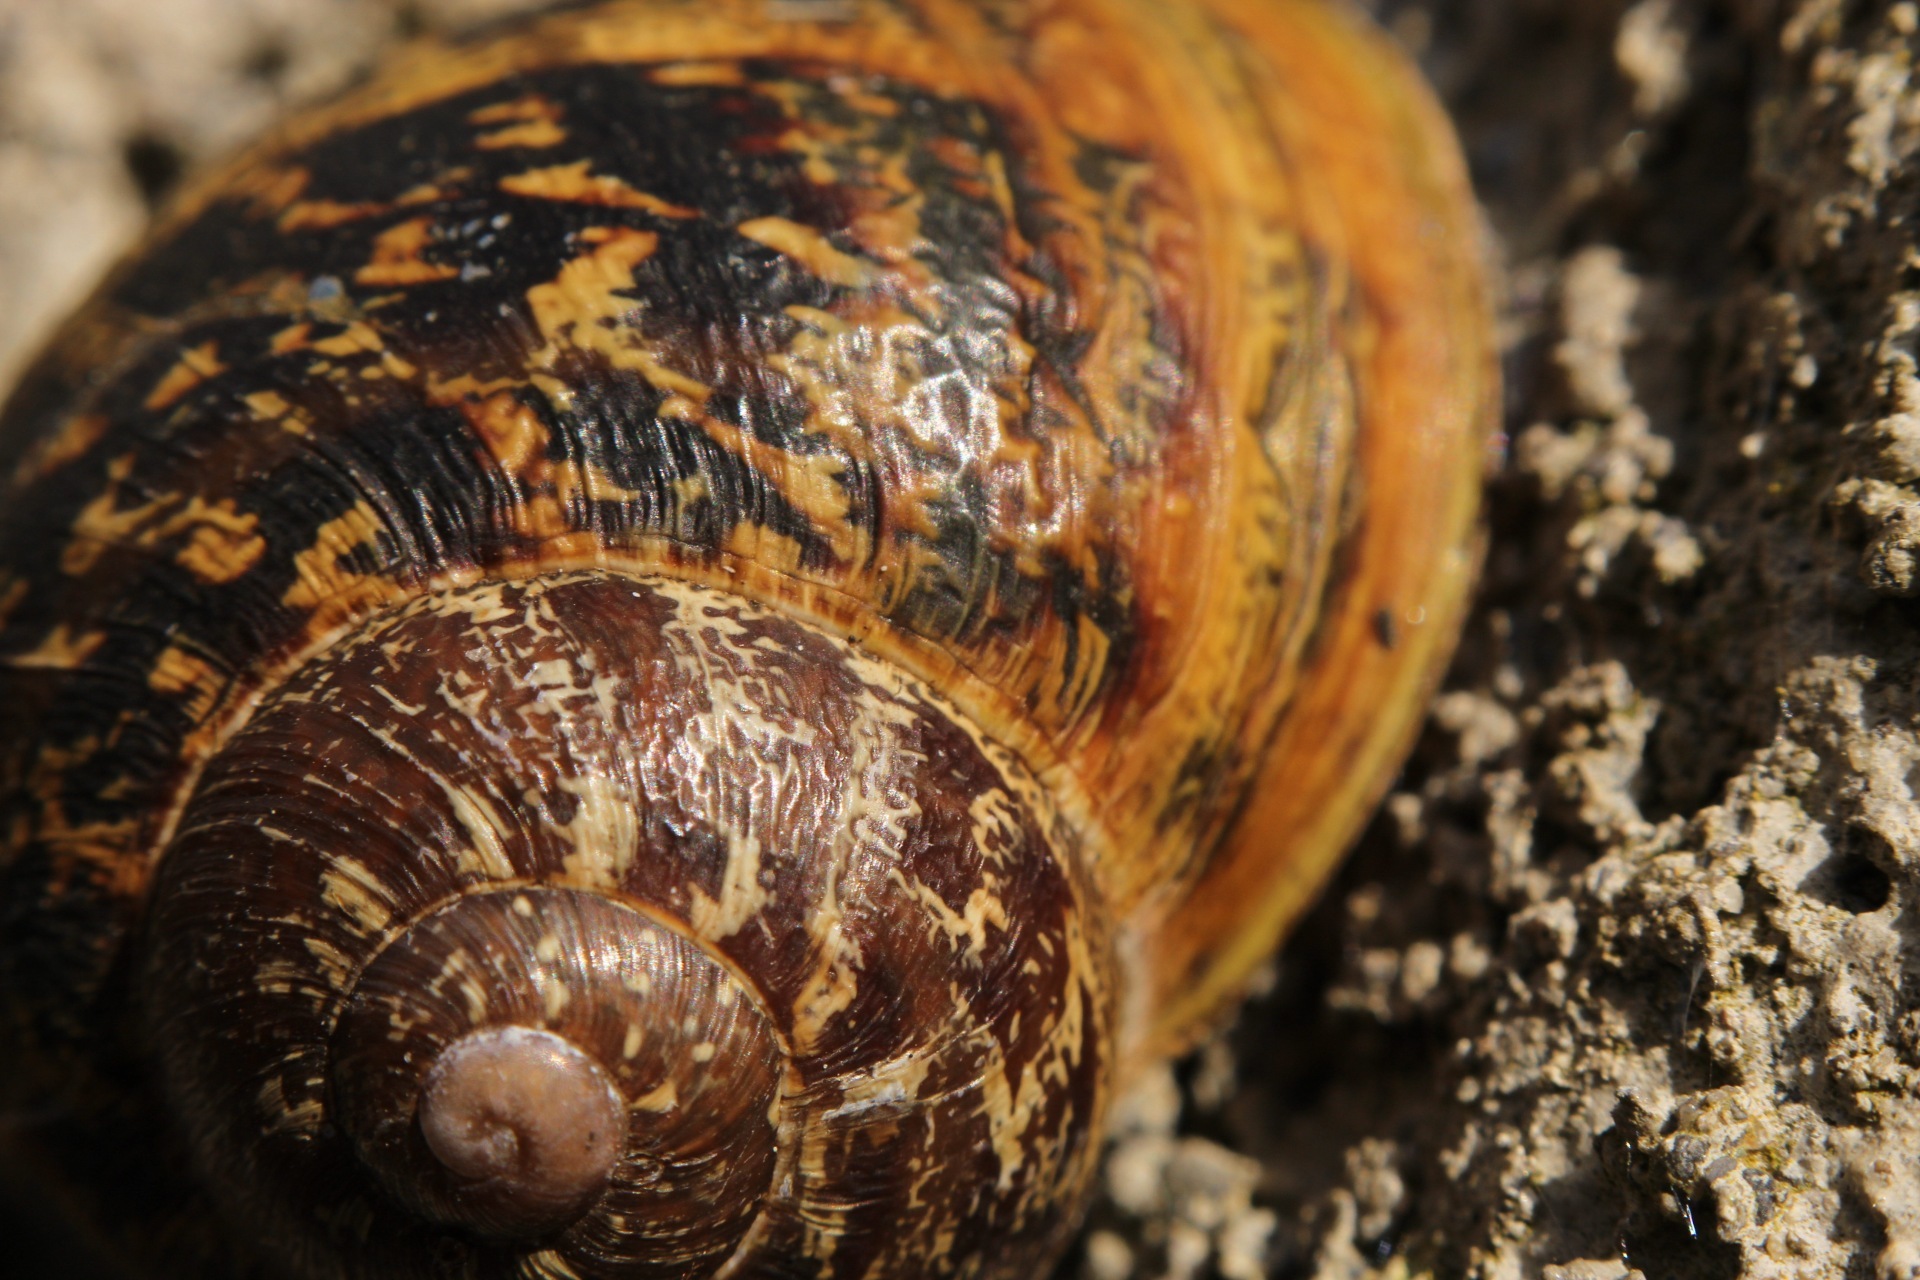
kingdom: Animalia
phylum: Mollusca
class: Gastropoda
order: Stylommatophora
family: Helicidae
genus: Cornu
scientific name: Cornu aspersum
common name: Brown garden snail
